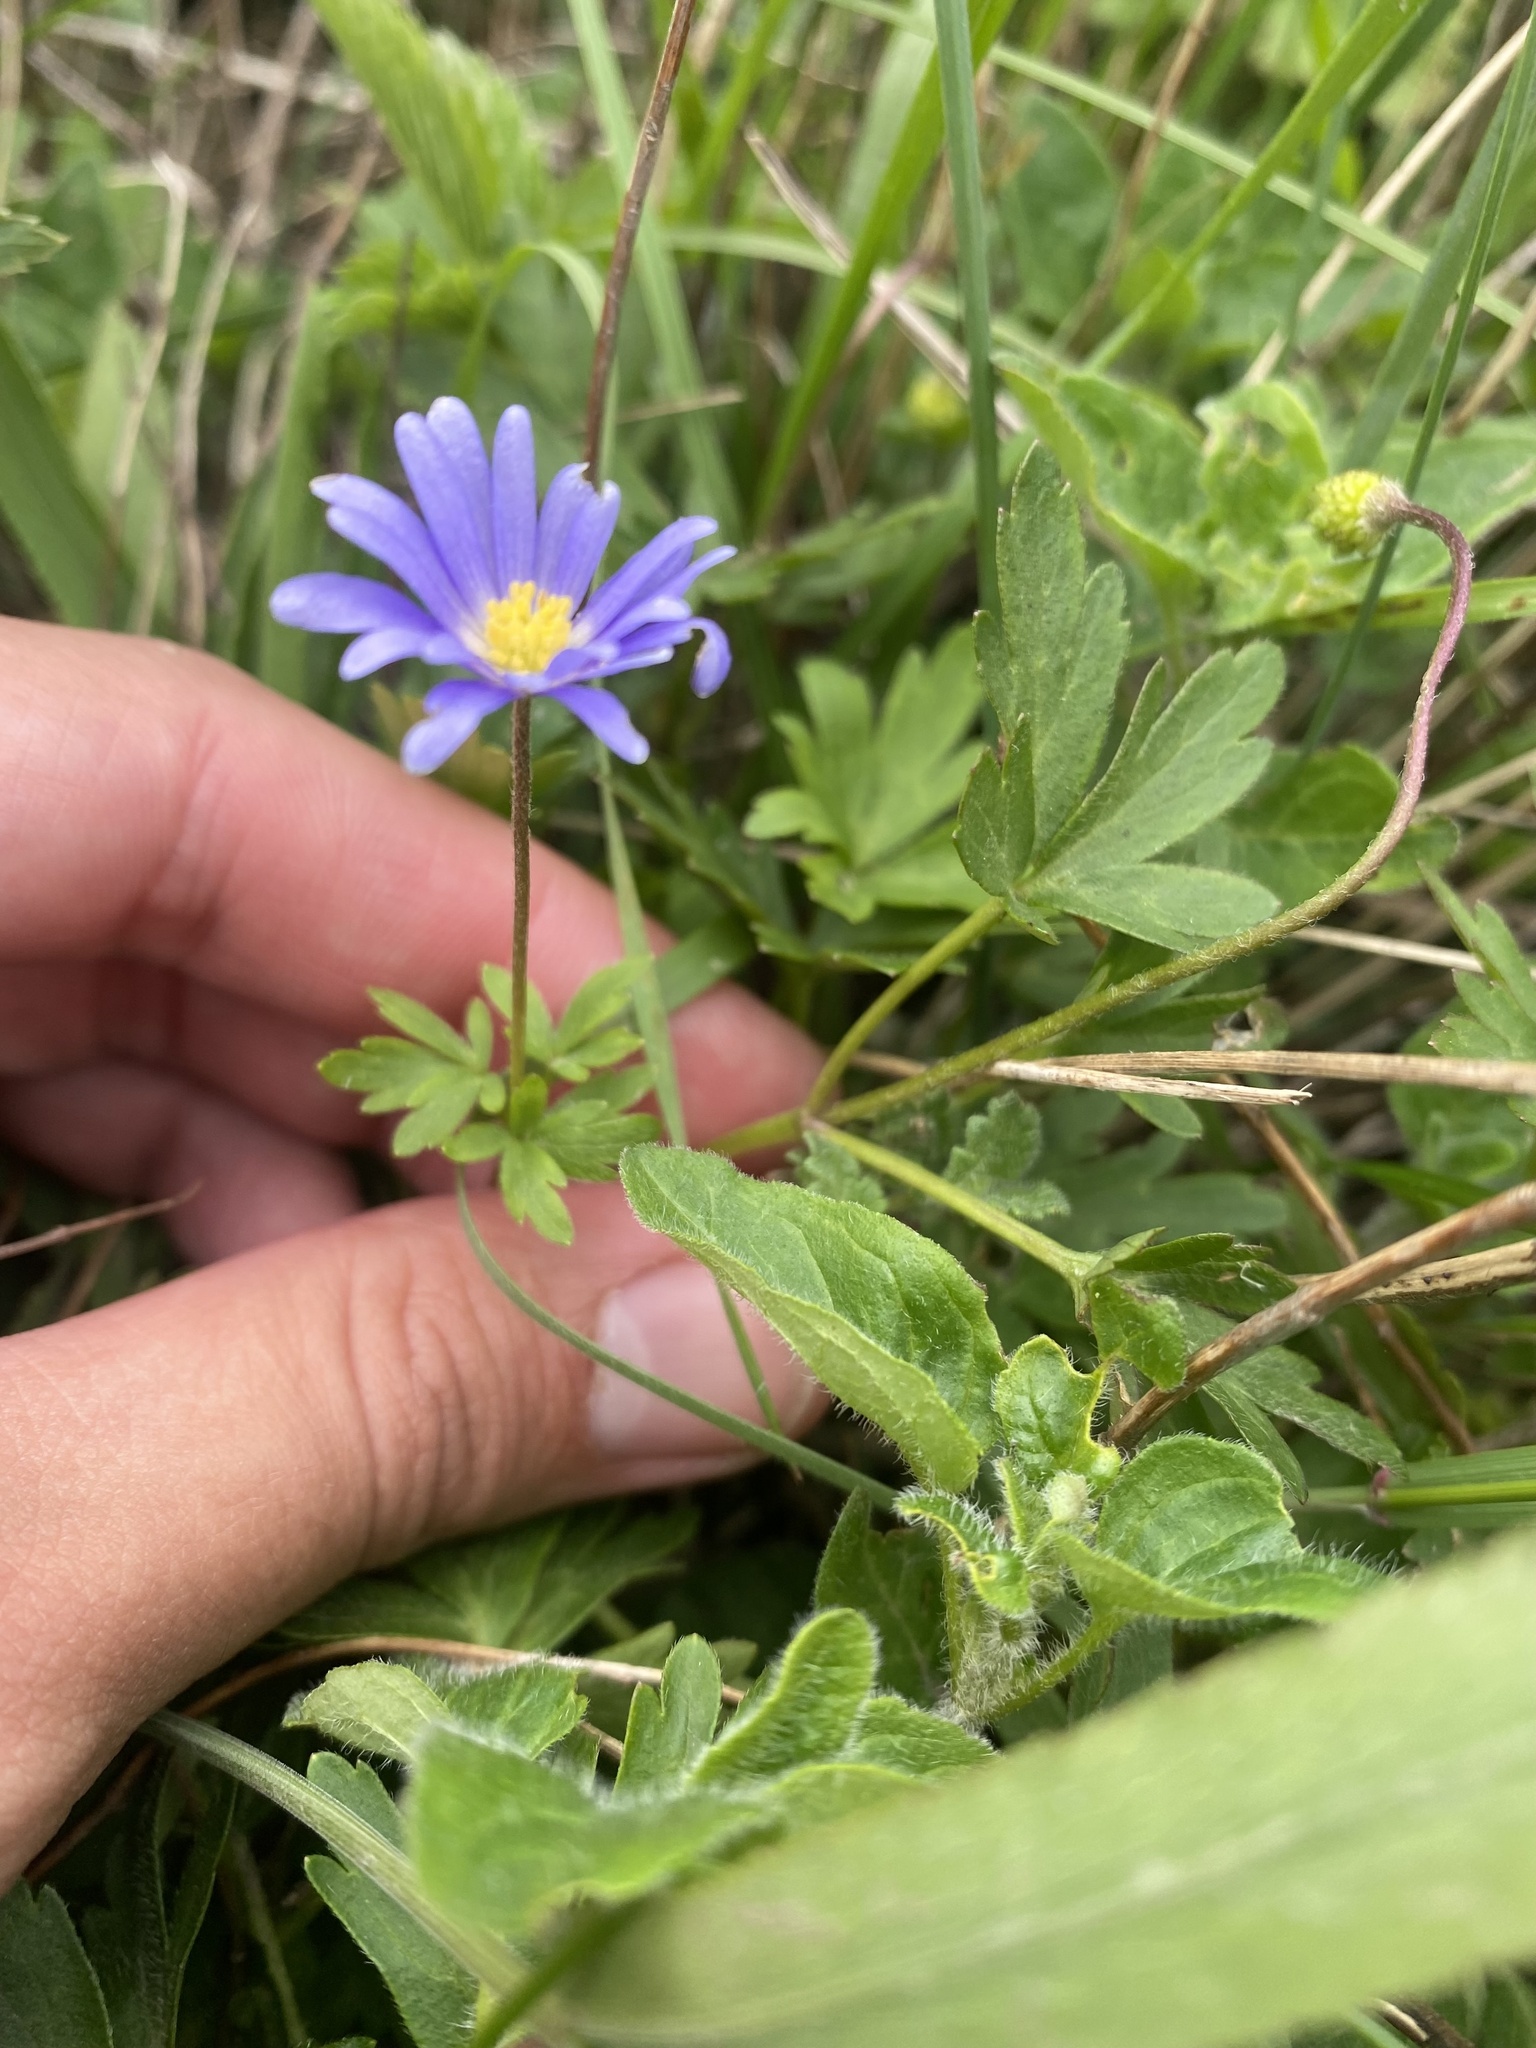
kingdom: Plantae
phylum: Tracheophyta
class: Magnoliopsida
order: Ranunculales
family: Ranunculaceae
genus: Anemone
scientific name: Anemone blanda
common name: Balkan anemone
